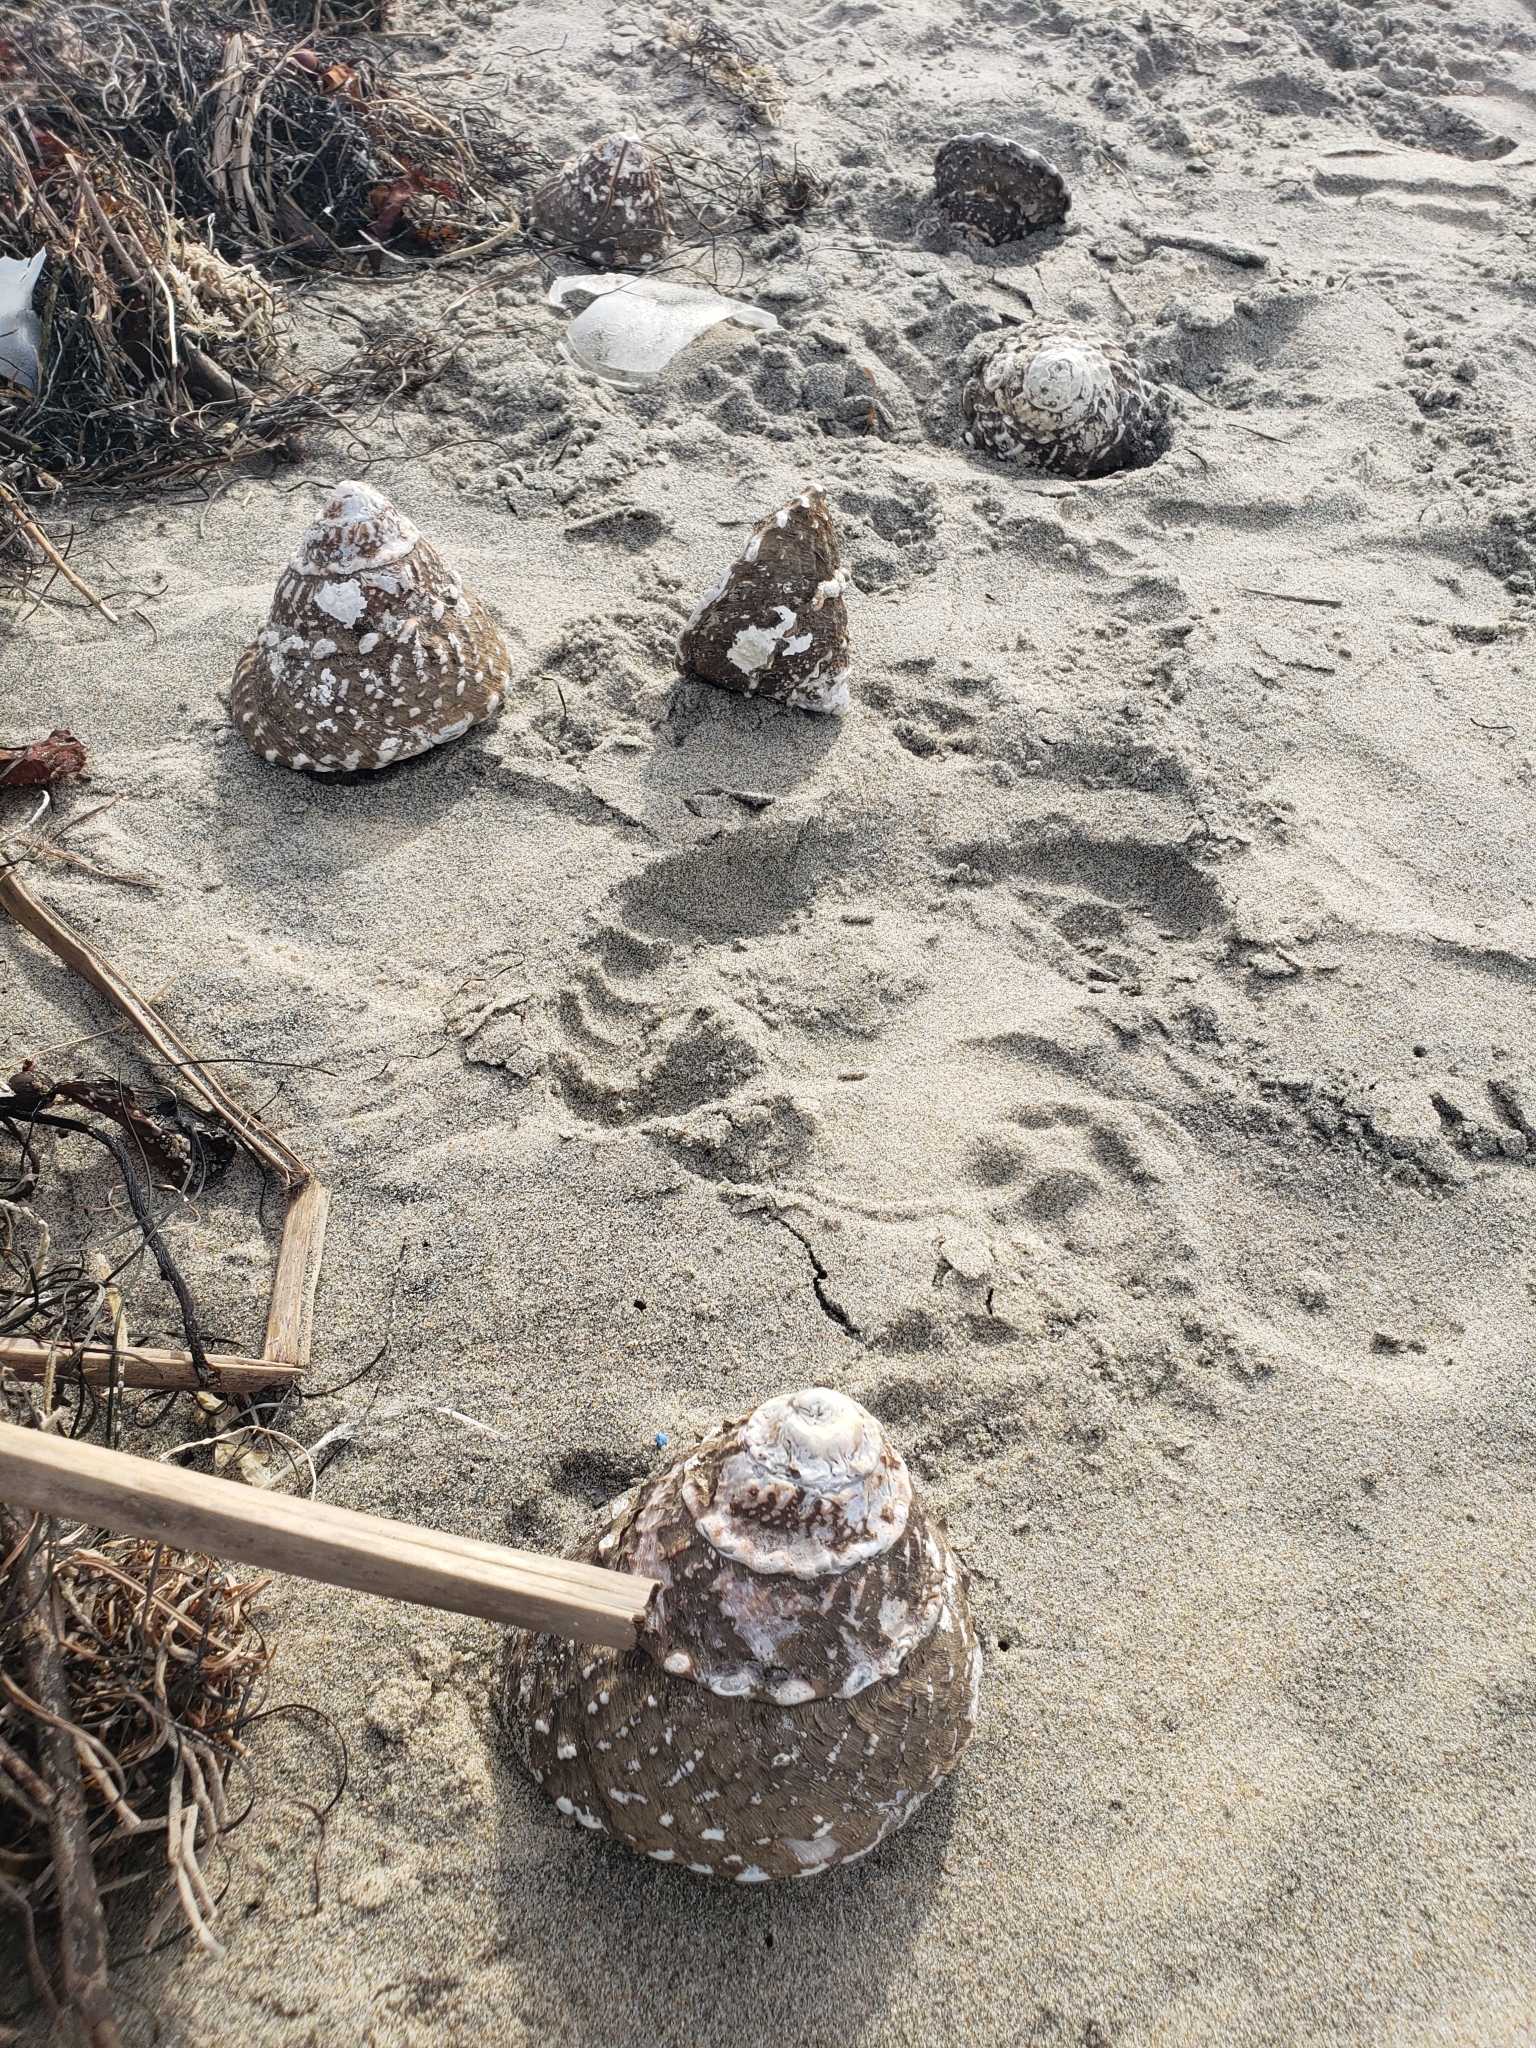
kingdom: Animalia
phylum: Mollusca
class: Gastropoda
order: Trochida
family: Turbinidae
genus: Megastraea
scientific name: Megastraea undosa
